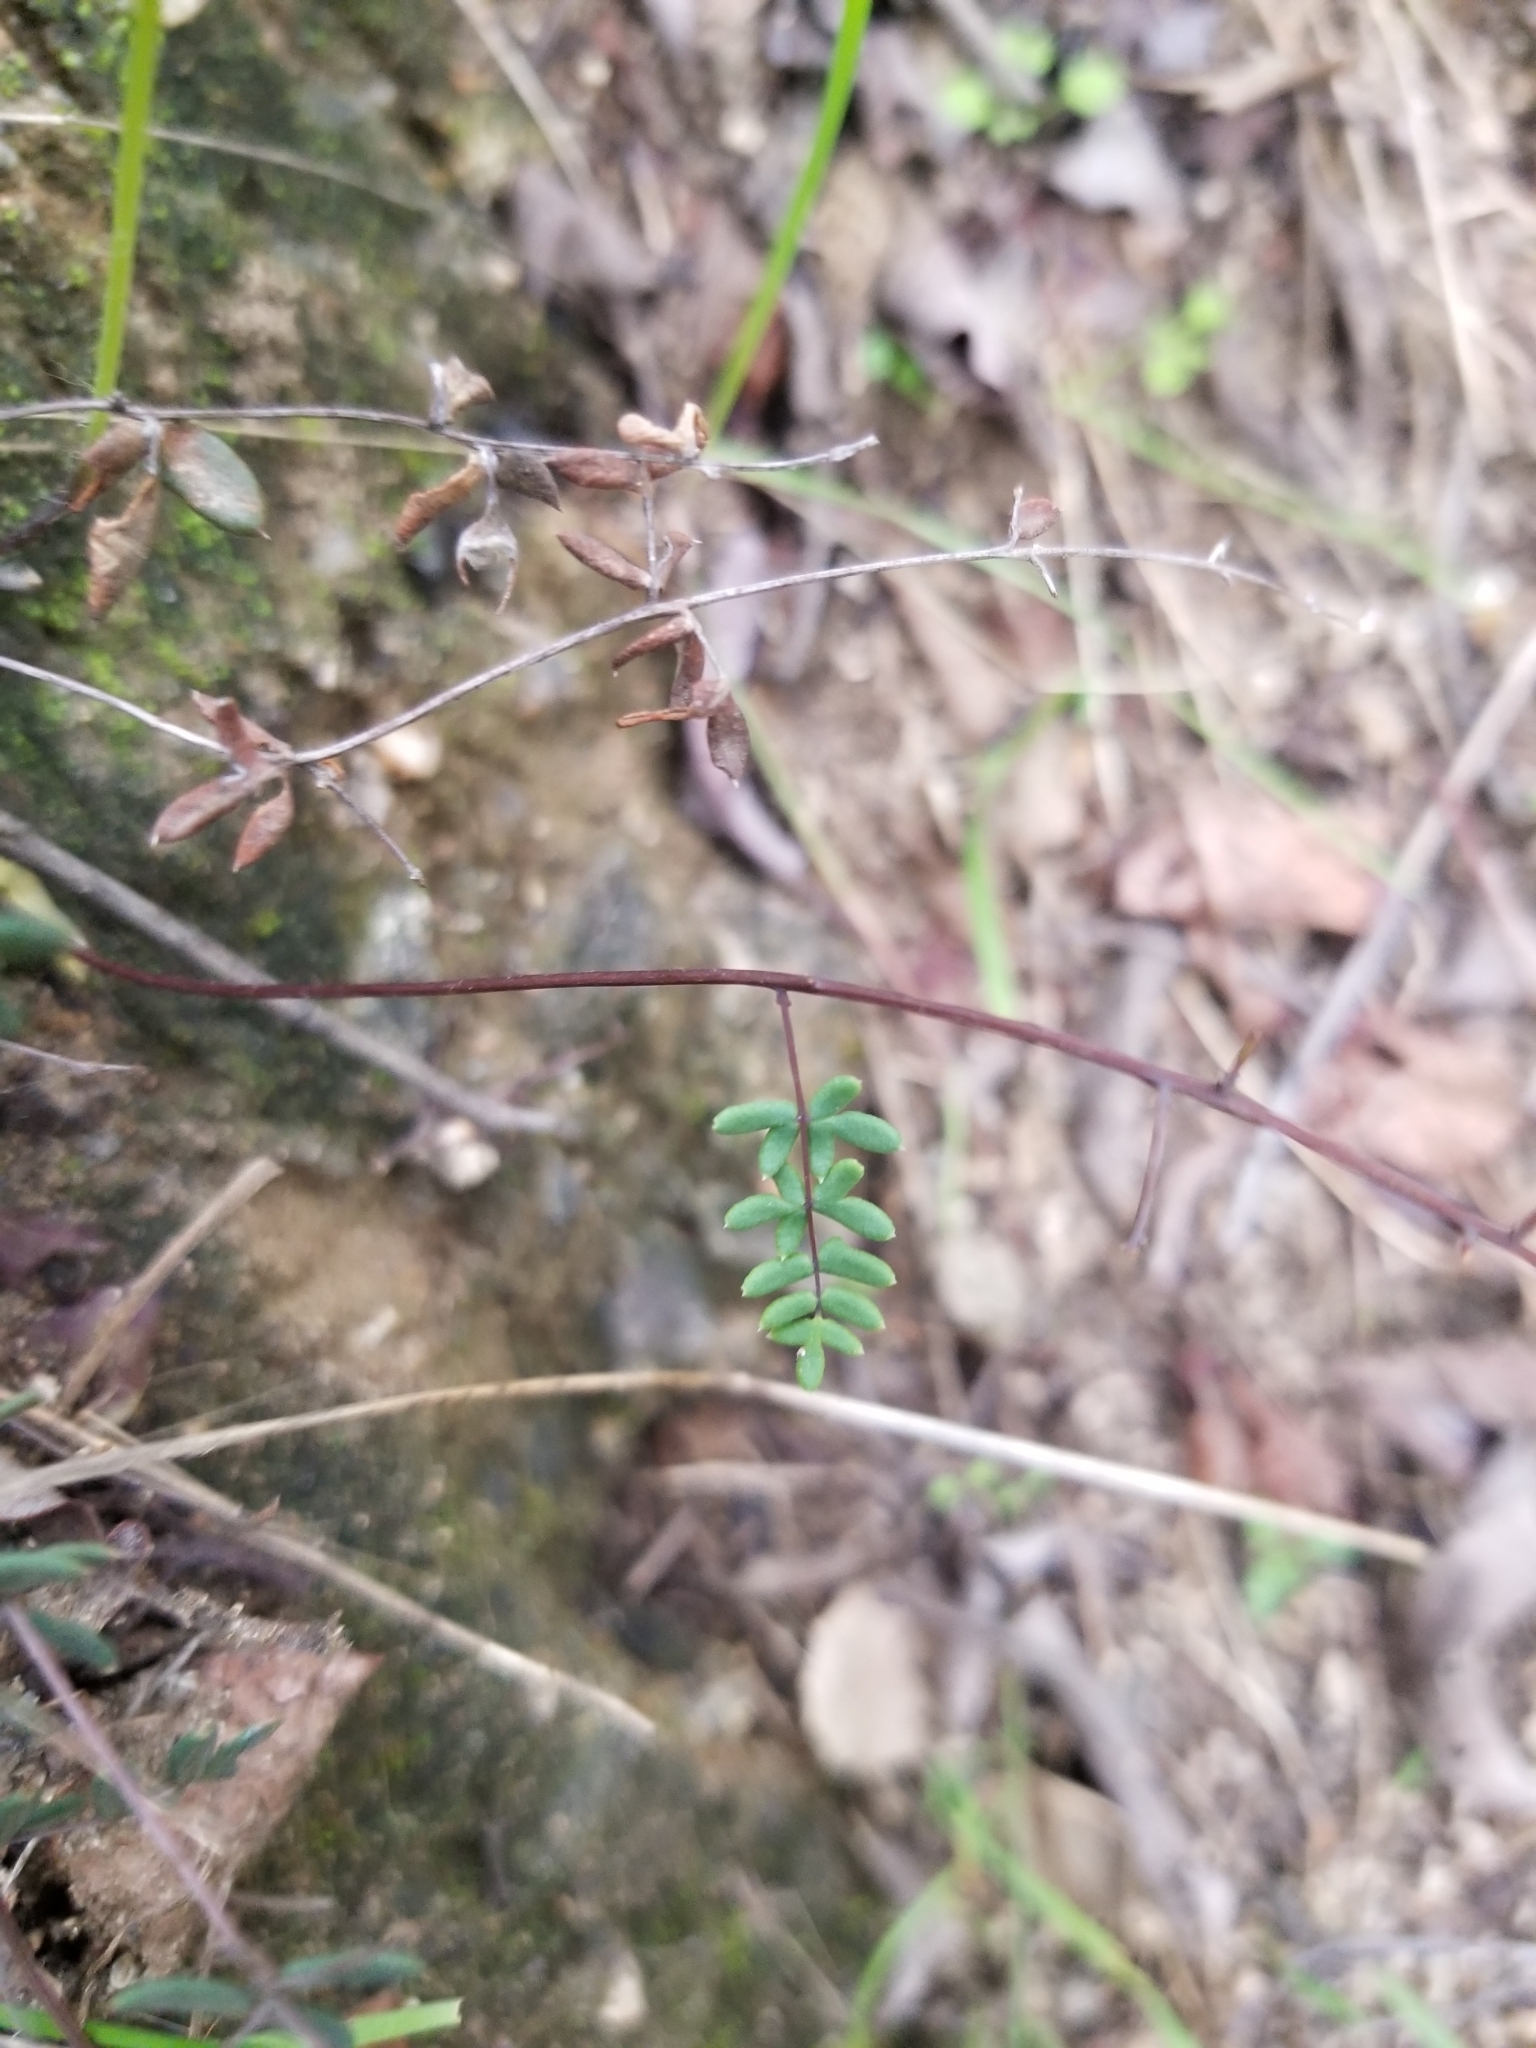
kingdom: Plantae
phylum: Tracheophyta
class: Polypodiopsida
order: Polypodiales
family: Pteridaceae
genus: Pellaea
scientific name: Pellaea mucronata
